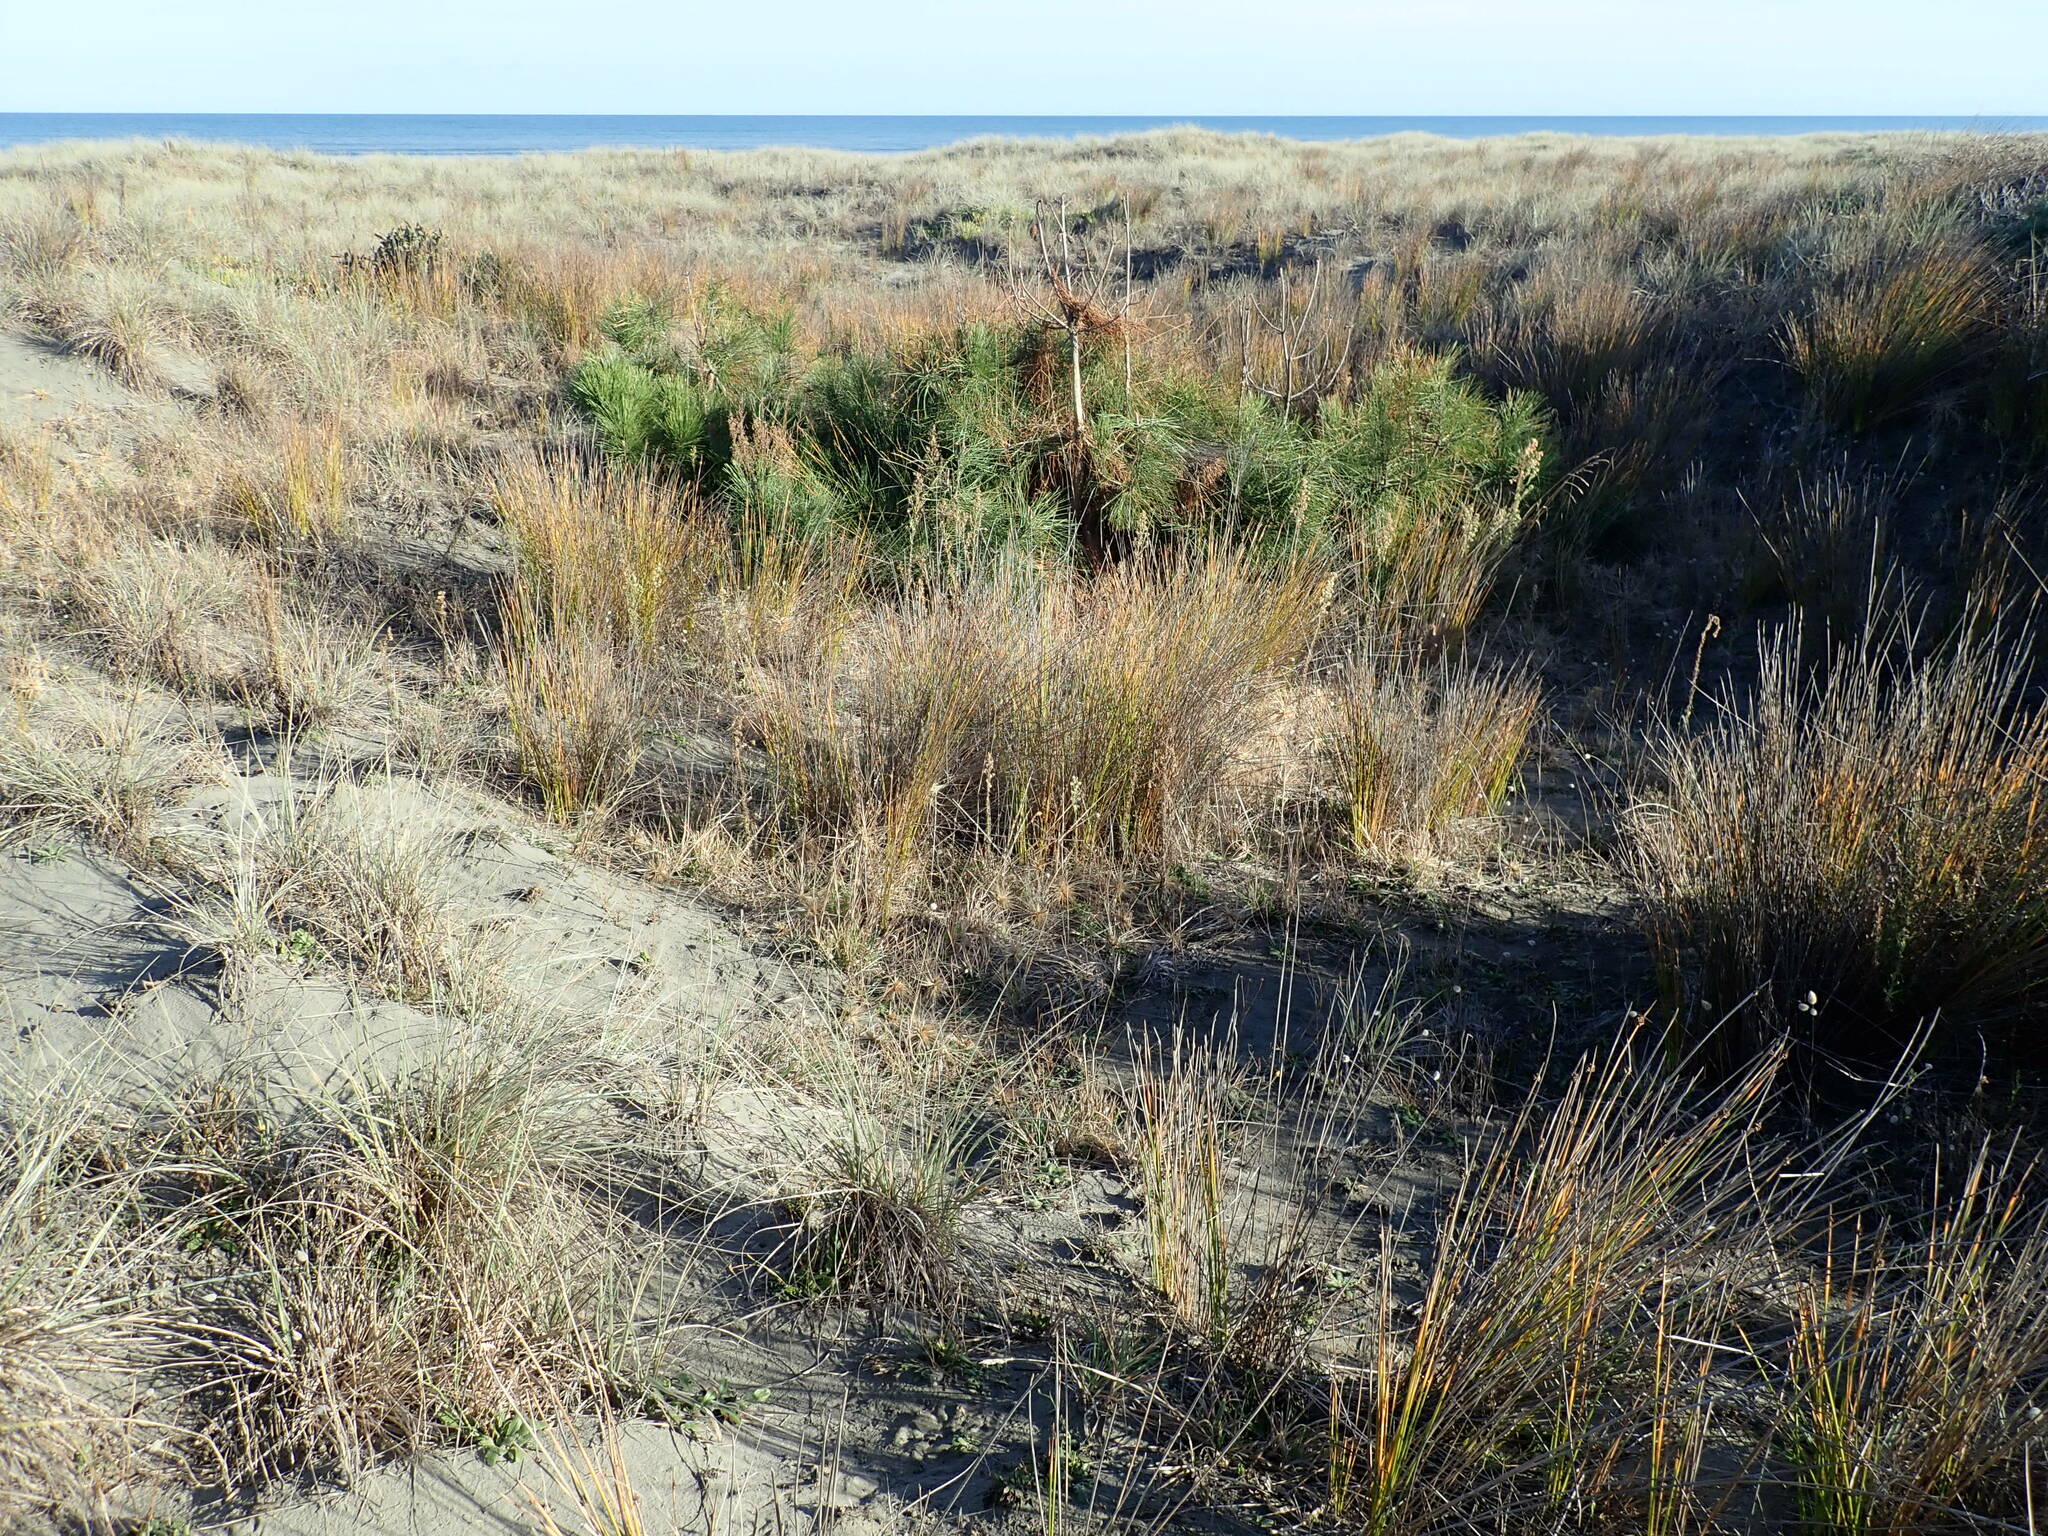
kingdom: Plantae
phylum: Tracheophyta
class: Pinopsida
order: Pinales
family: Pinaceae
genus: Pinus
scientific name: Pinus pinaster
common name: Maritime pine
